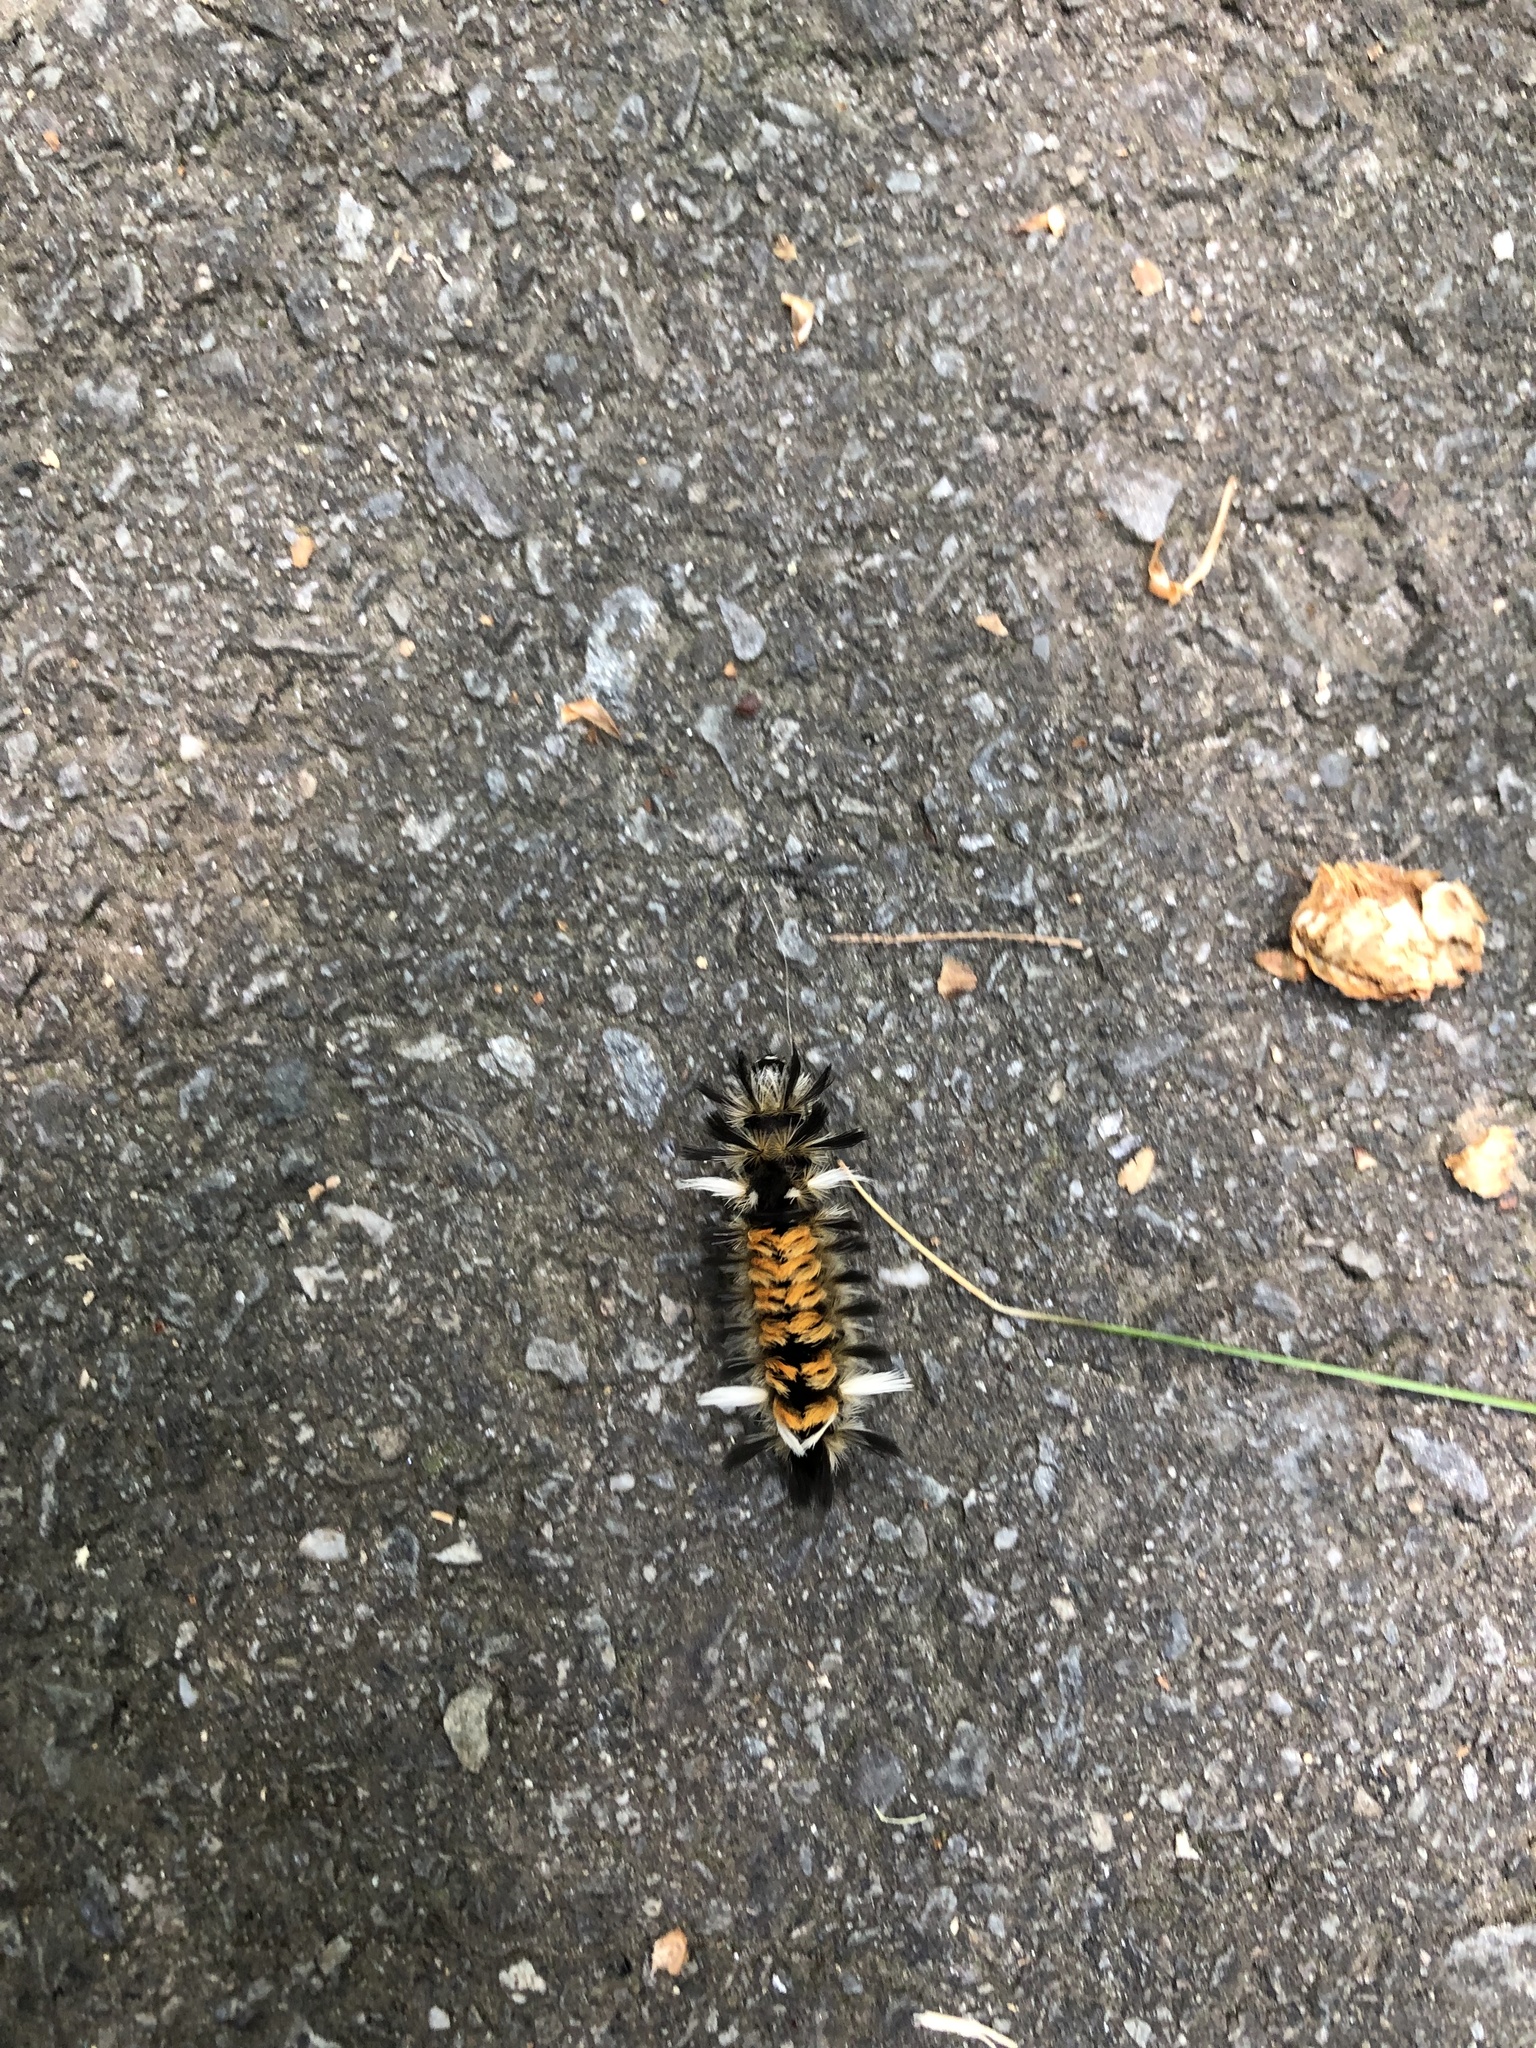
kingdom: Animalia
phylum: Arthropoda
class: Insecta
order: Lepidoptera
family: Erebidae
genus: Euchaetes
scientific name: Euchaetes egle
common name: Milkweed tussock moth
